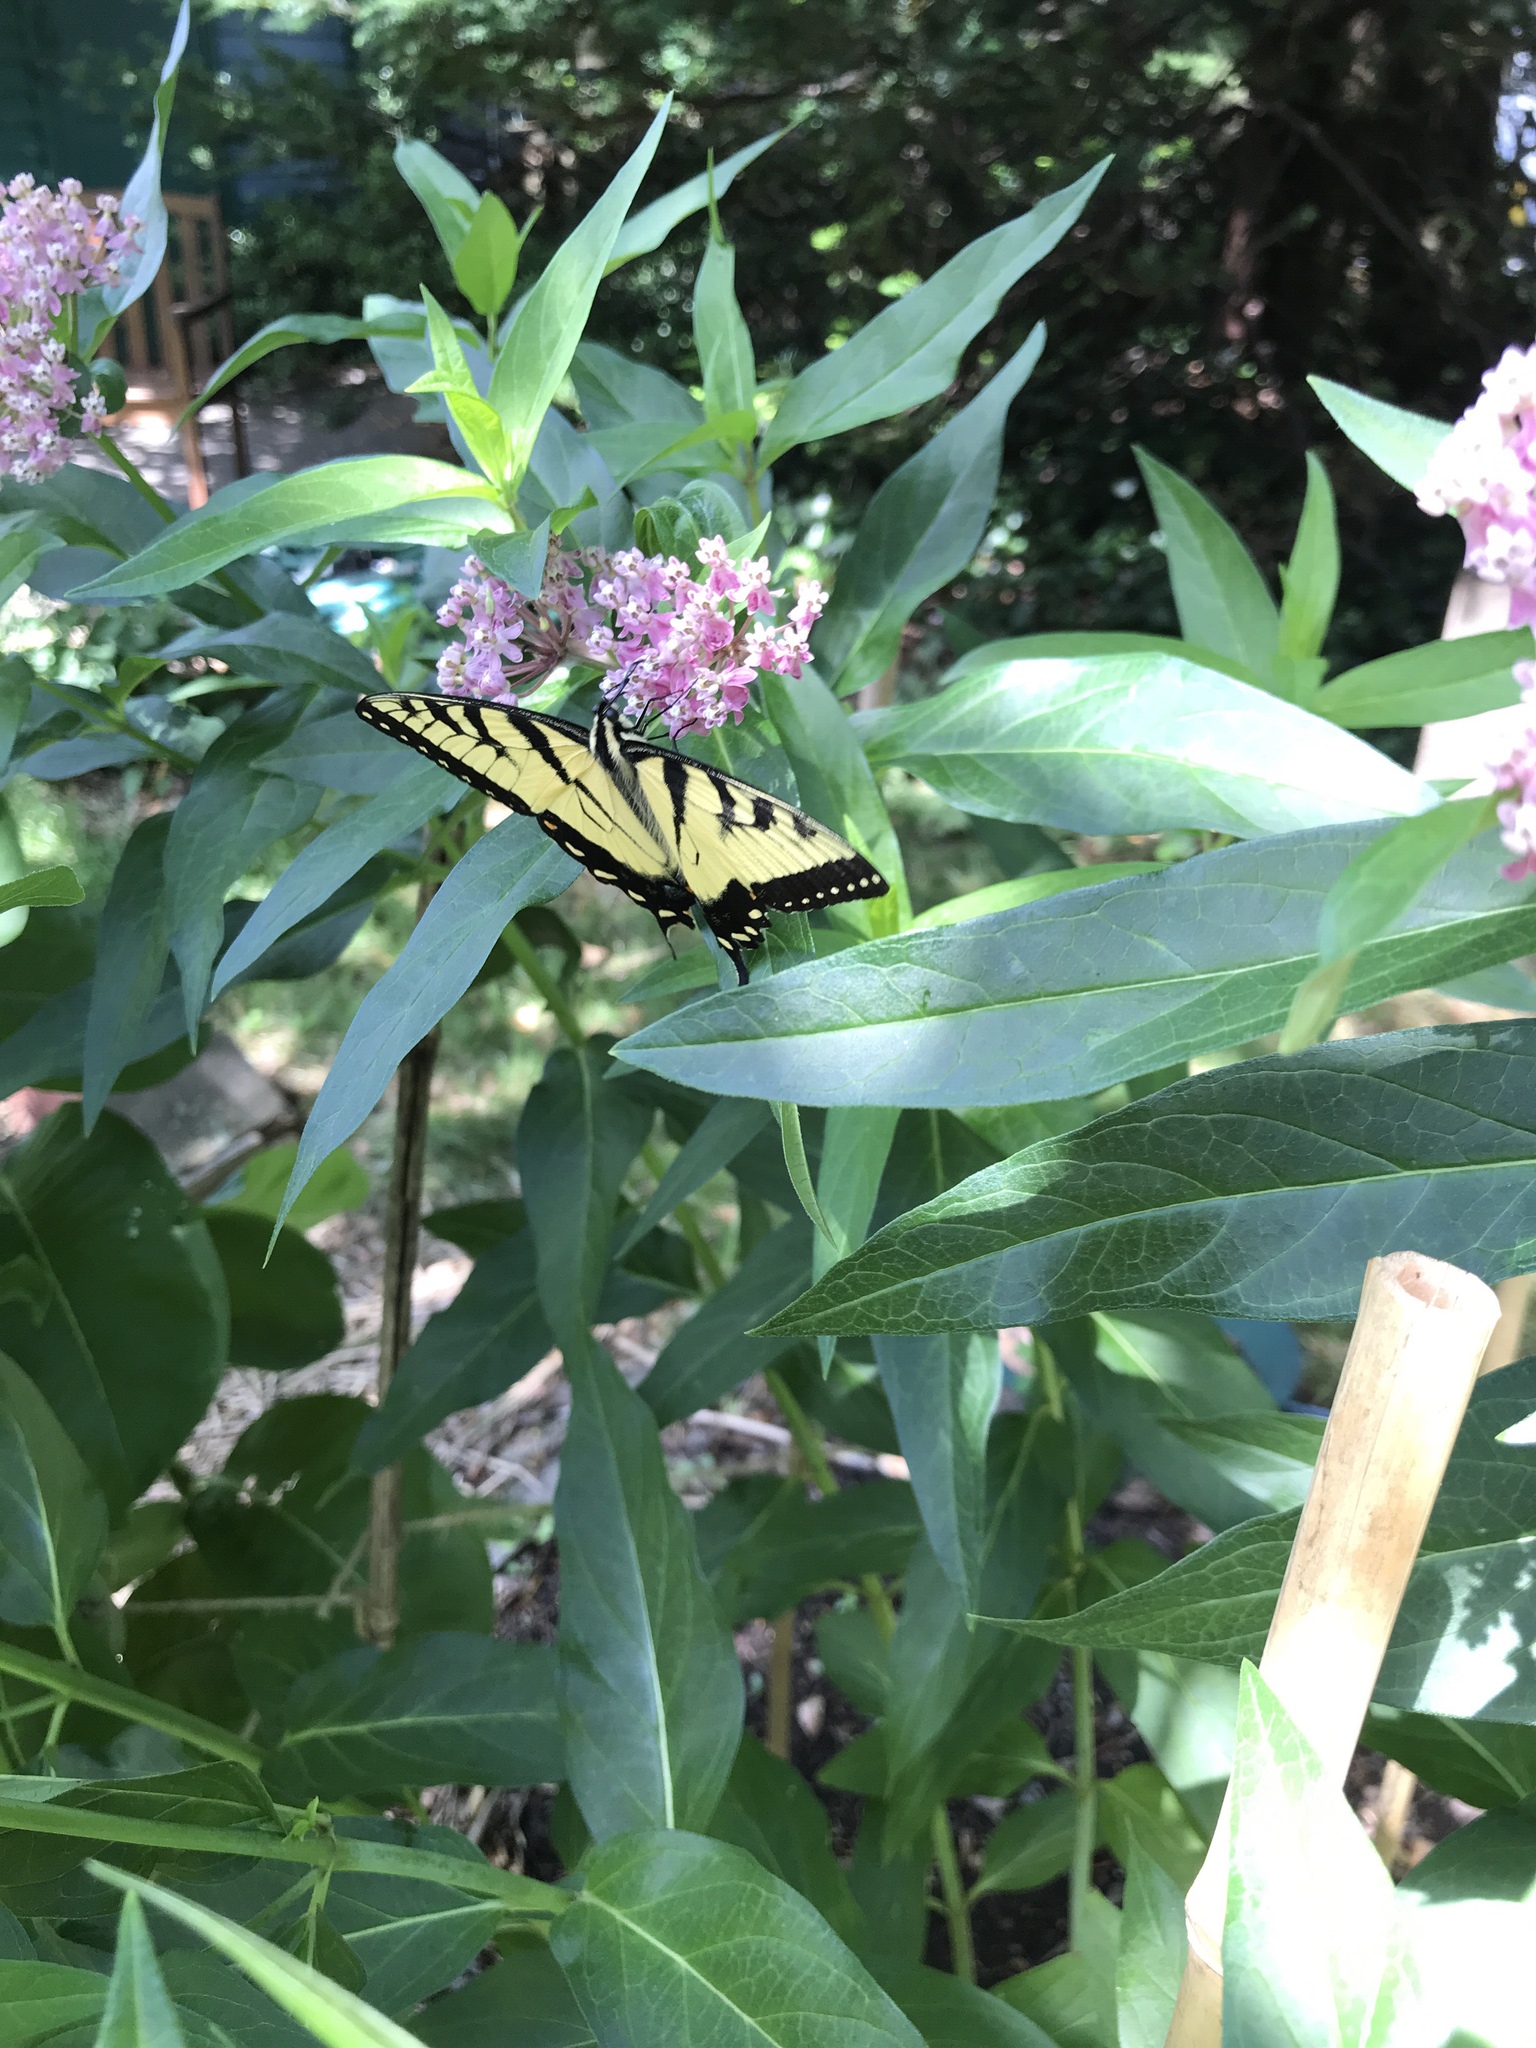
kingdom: Plantae
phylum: Tracheophyta
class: Magnoliopsida
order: Gentianales
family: Apocynaceae
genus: Asclepias
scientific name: Asclepias incarnata
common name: Swamp milkweed
